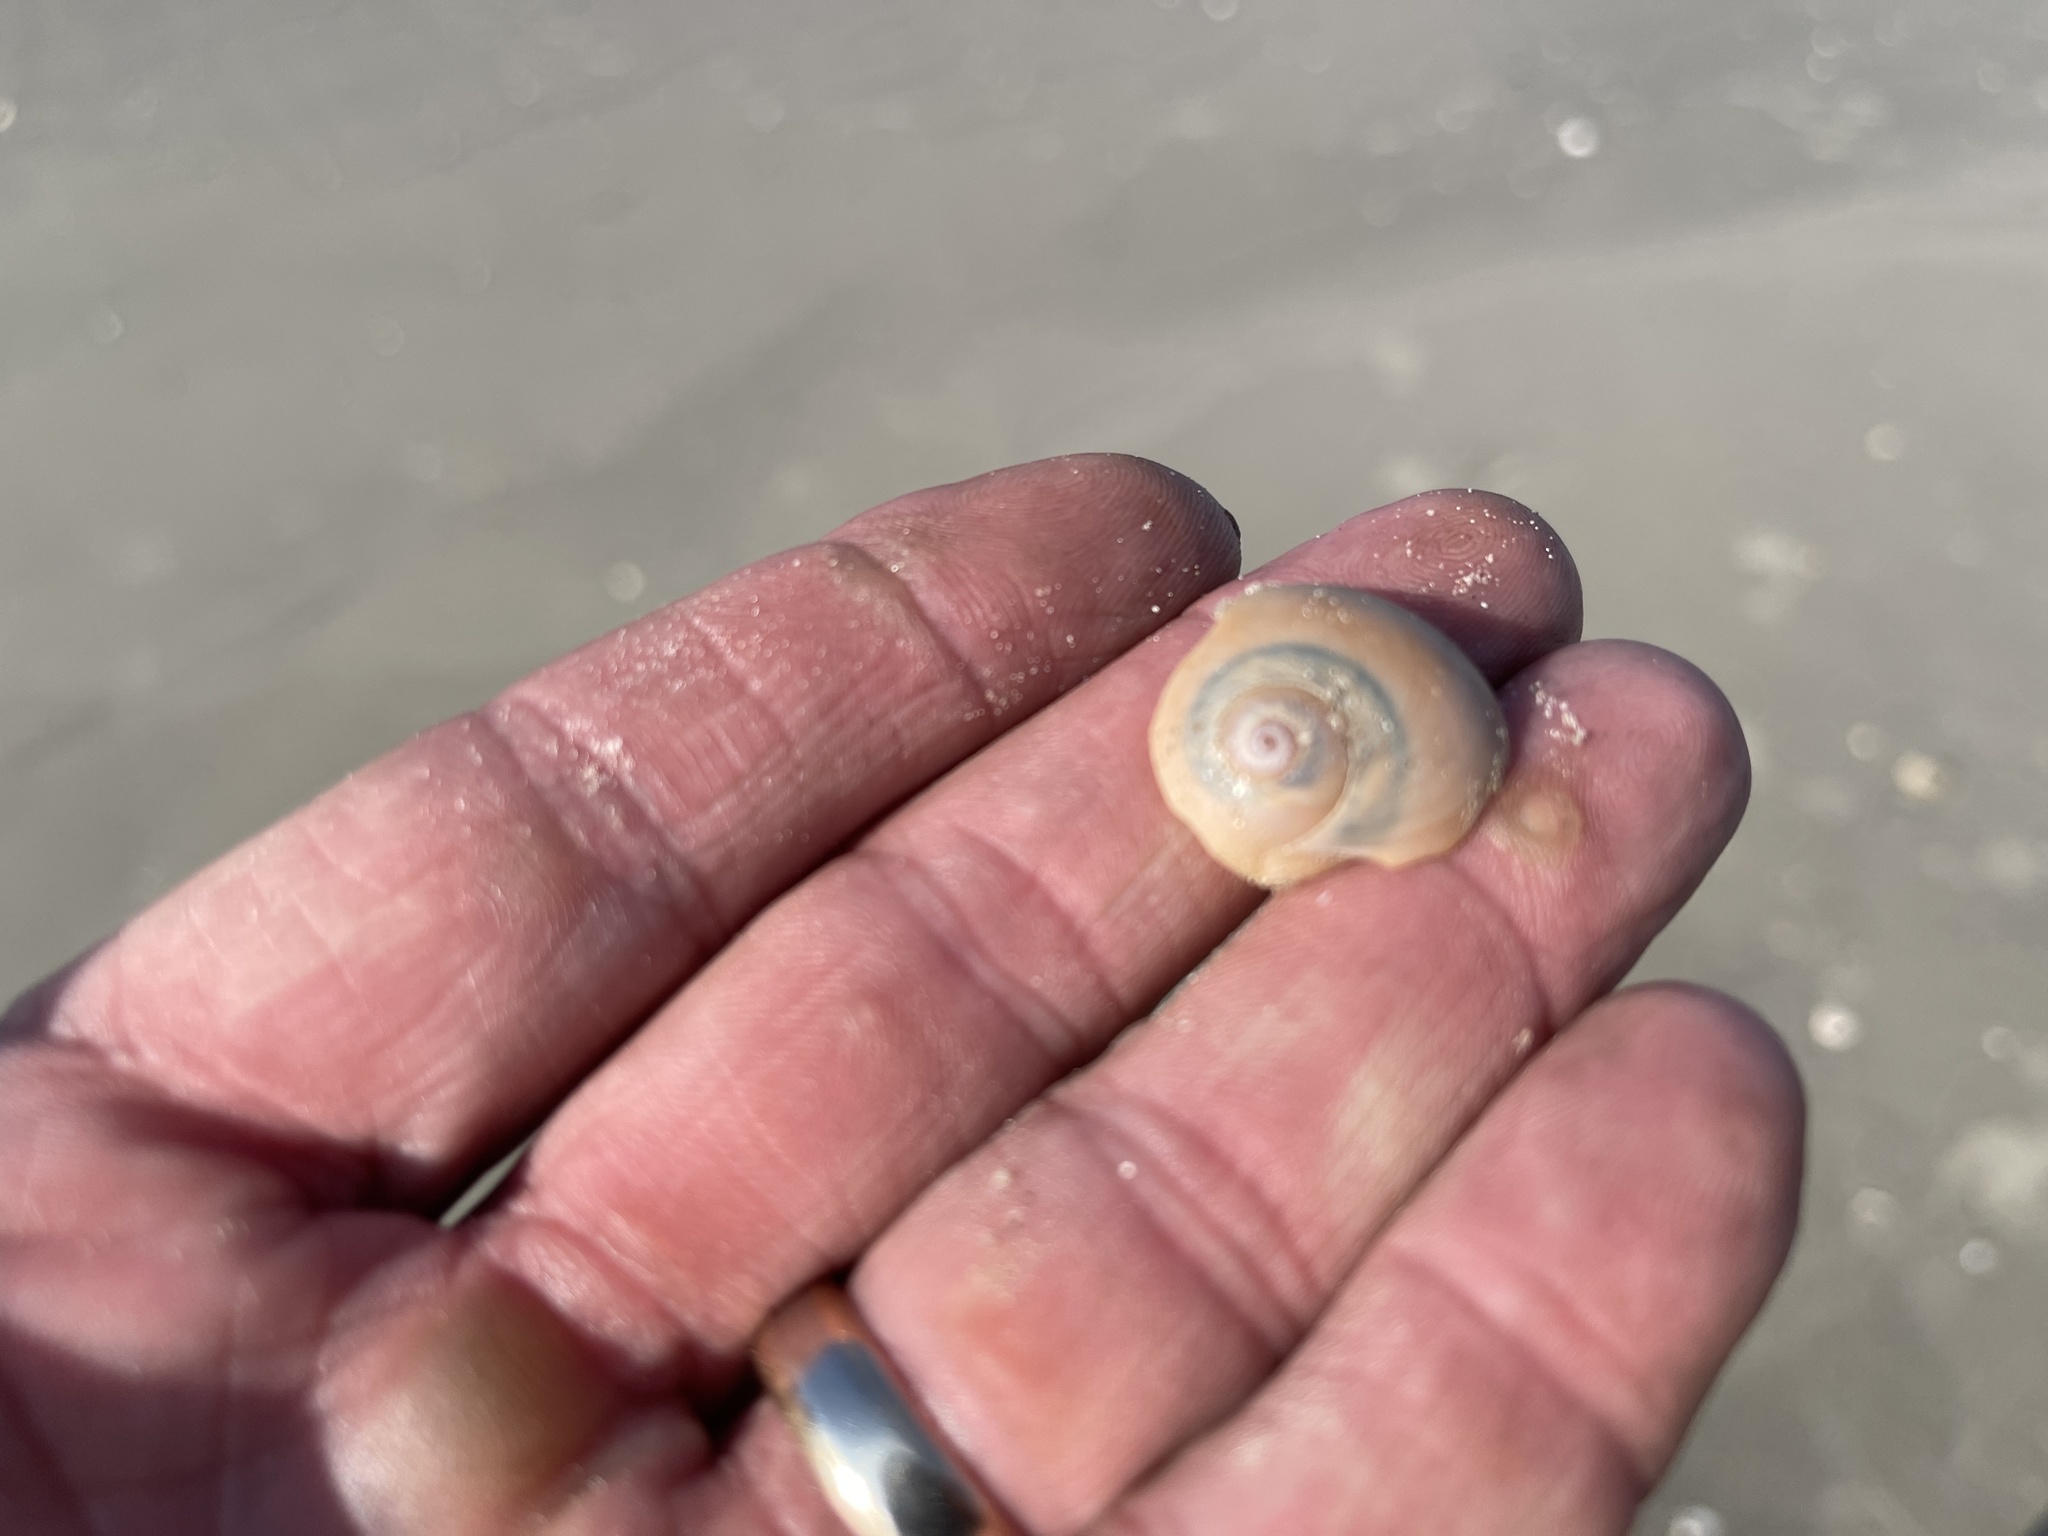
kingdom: Animalia
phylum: Mollusca
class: Gastropoda
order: Littorinimorpha
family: Naticidae
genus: Neverita
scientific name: Neverita duplicata
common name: Lobed moonsnail
